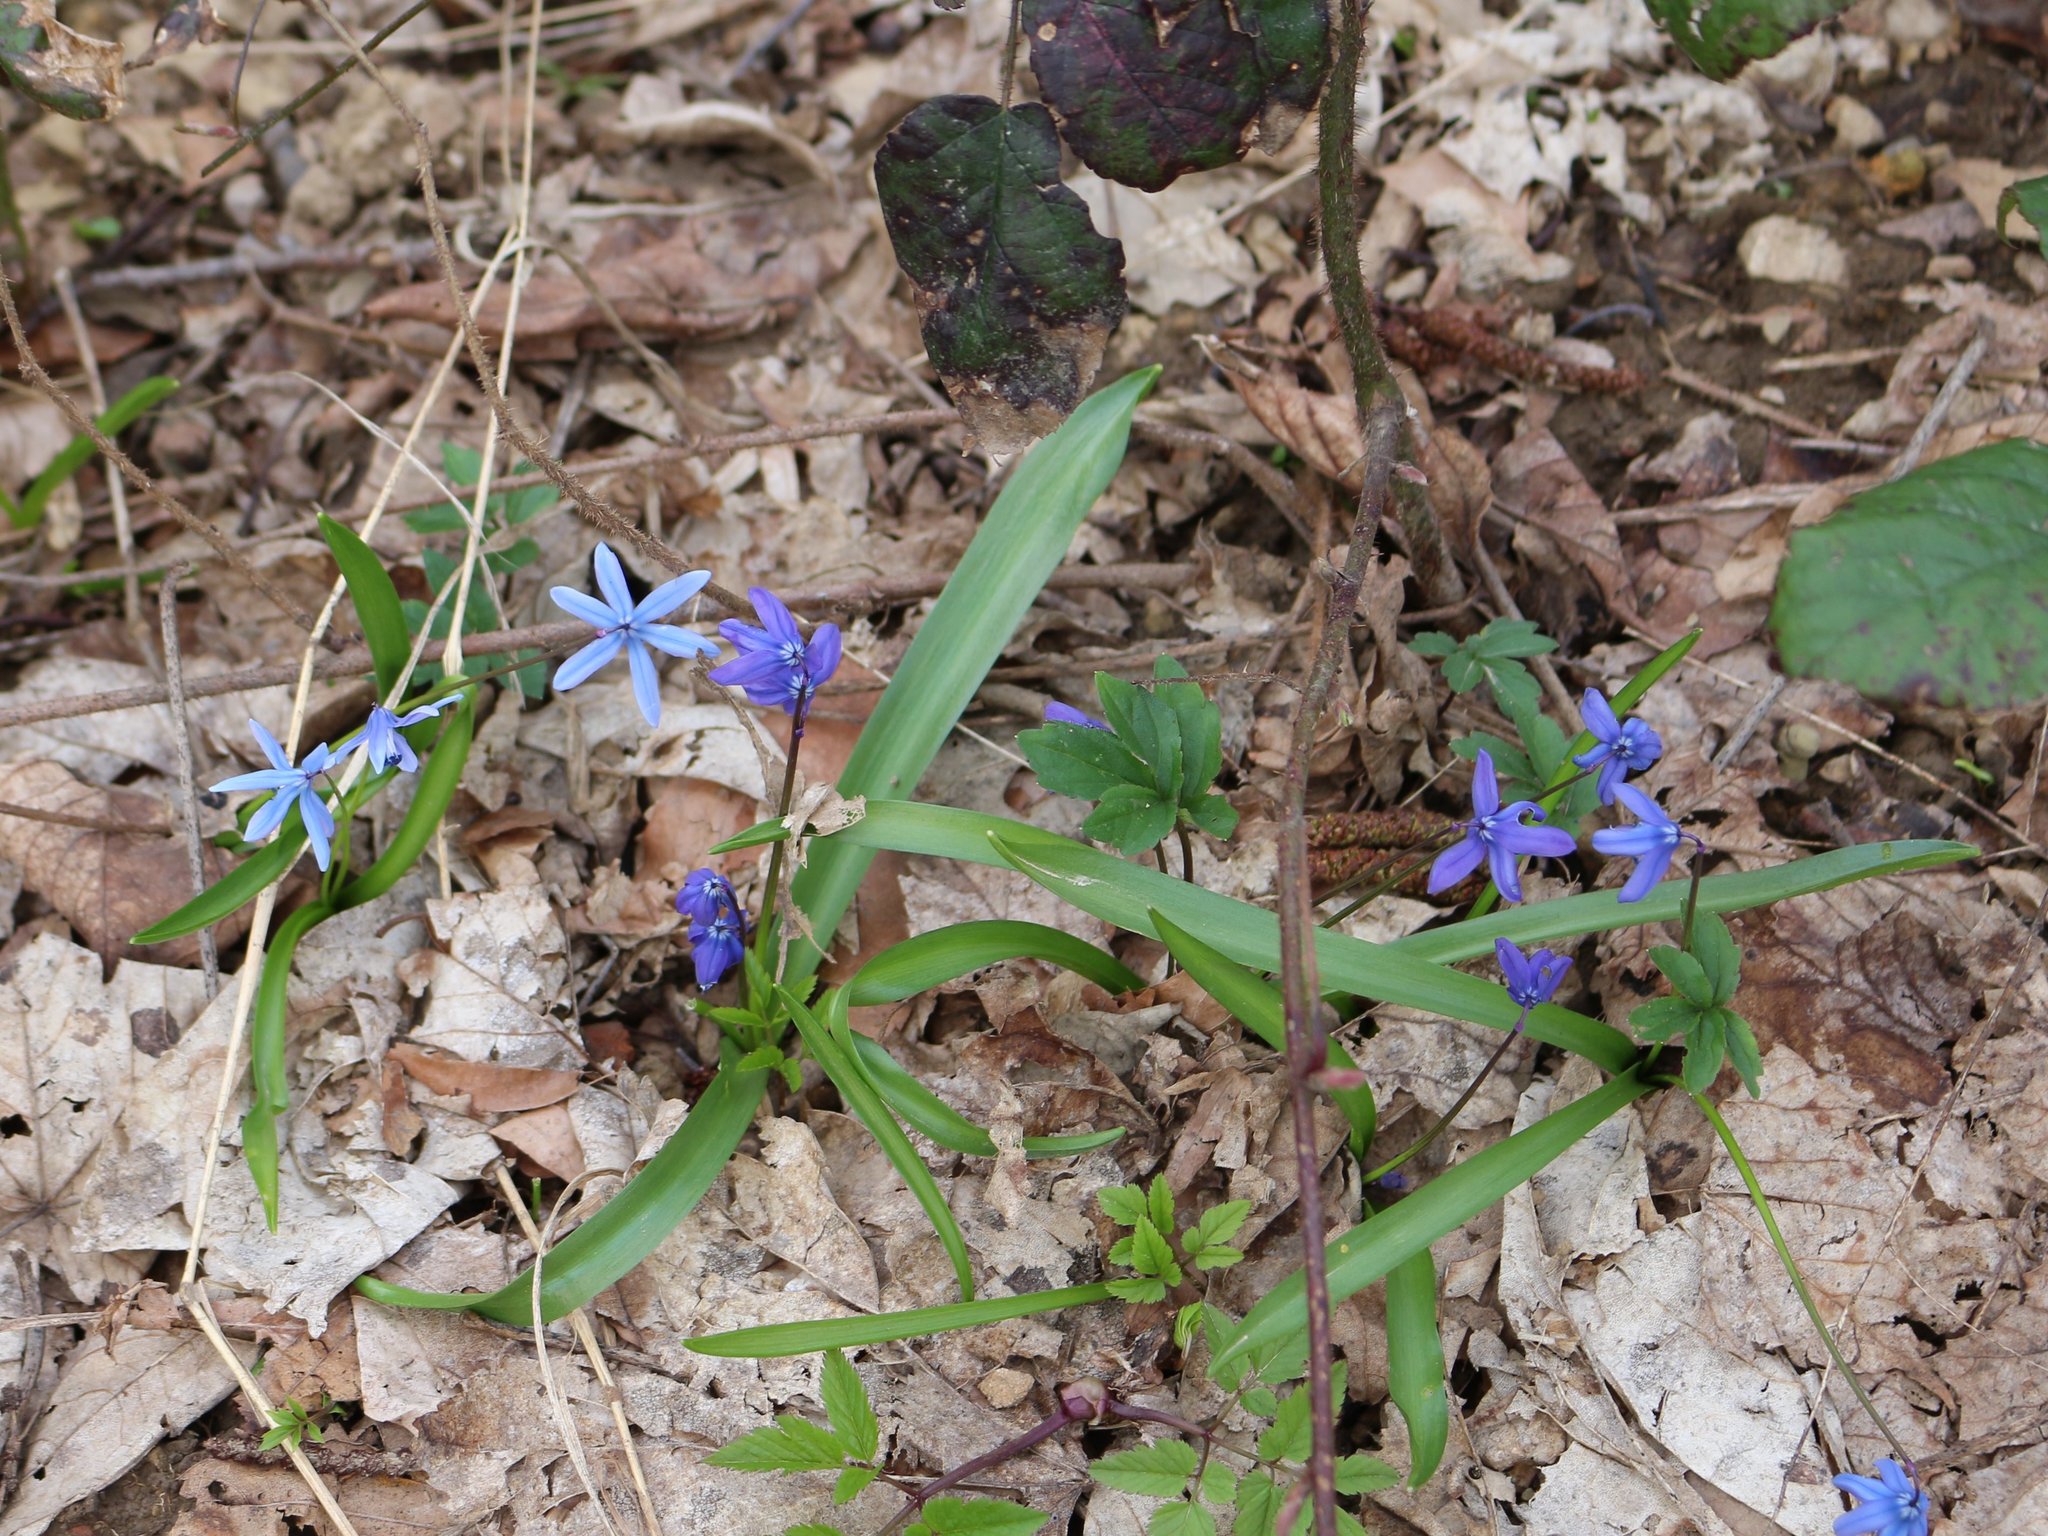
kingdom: Plantae
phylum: Tracheophyta
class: Liliopsida
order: Asparagales
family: Asparagaceae
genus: Scilla
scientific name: Scilla siberica
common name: Siberian squill
